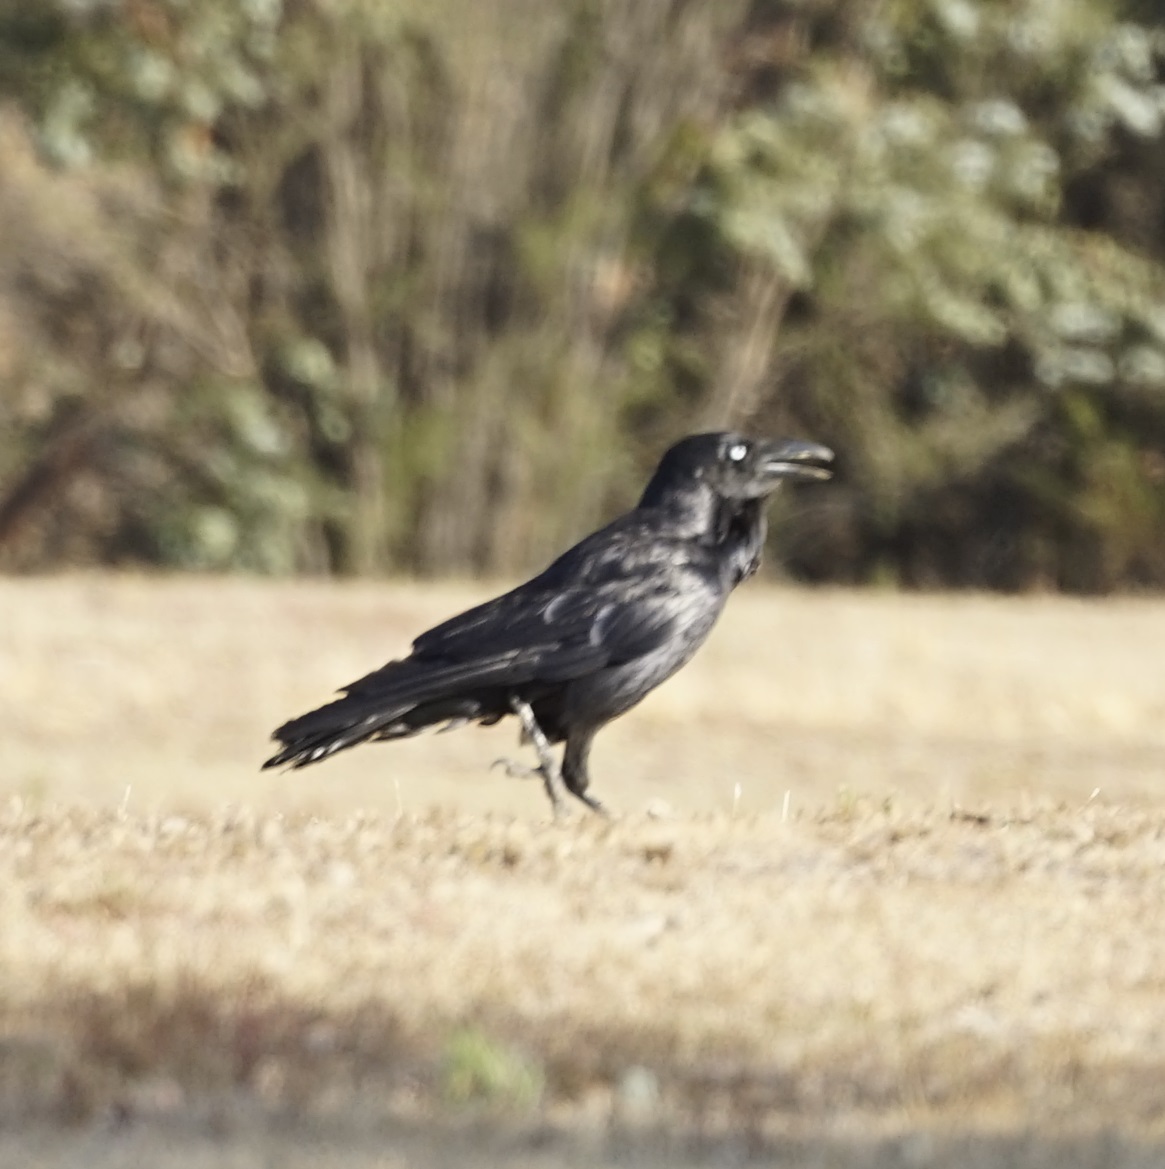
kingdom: Animalia
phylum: Chordata
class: Aves
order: Passeriformes
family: Corvidae
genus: Corvus
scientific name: Corvus coronoides
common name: Australian raven
